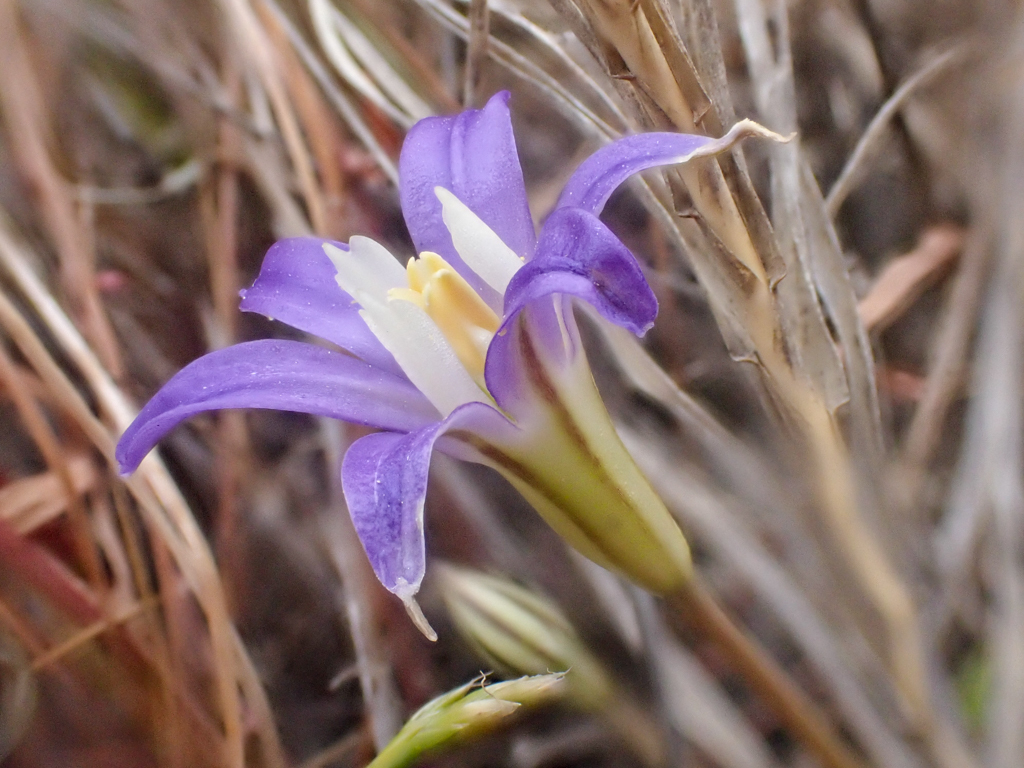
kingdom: Plantae
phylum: Tracheophyta
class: Liliopsida
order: Asparagales
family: Asparagaceae
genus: Brodiaea
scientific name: Brodiaea terrestris
